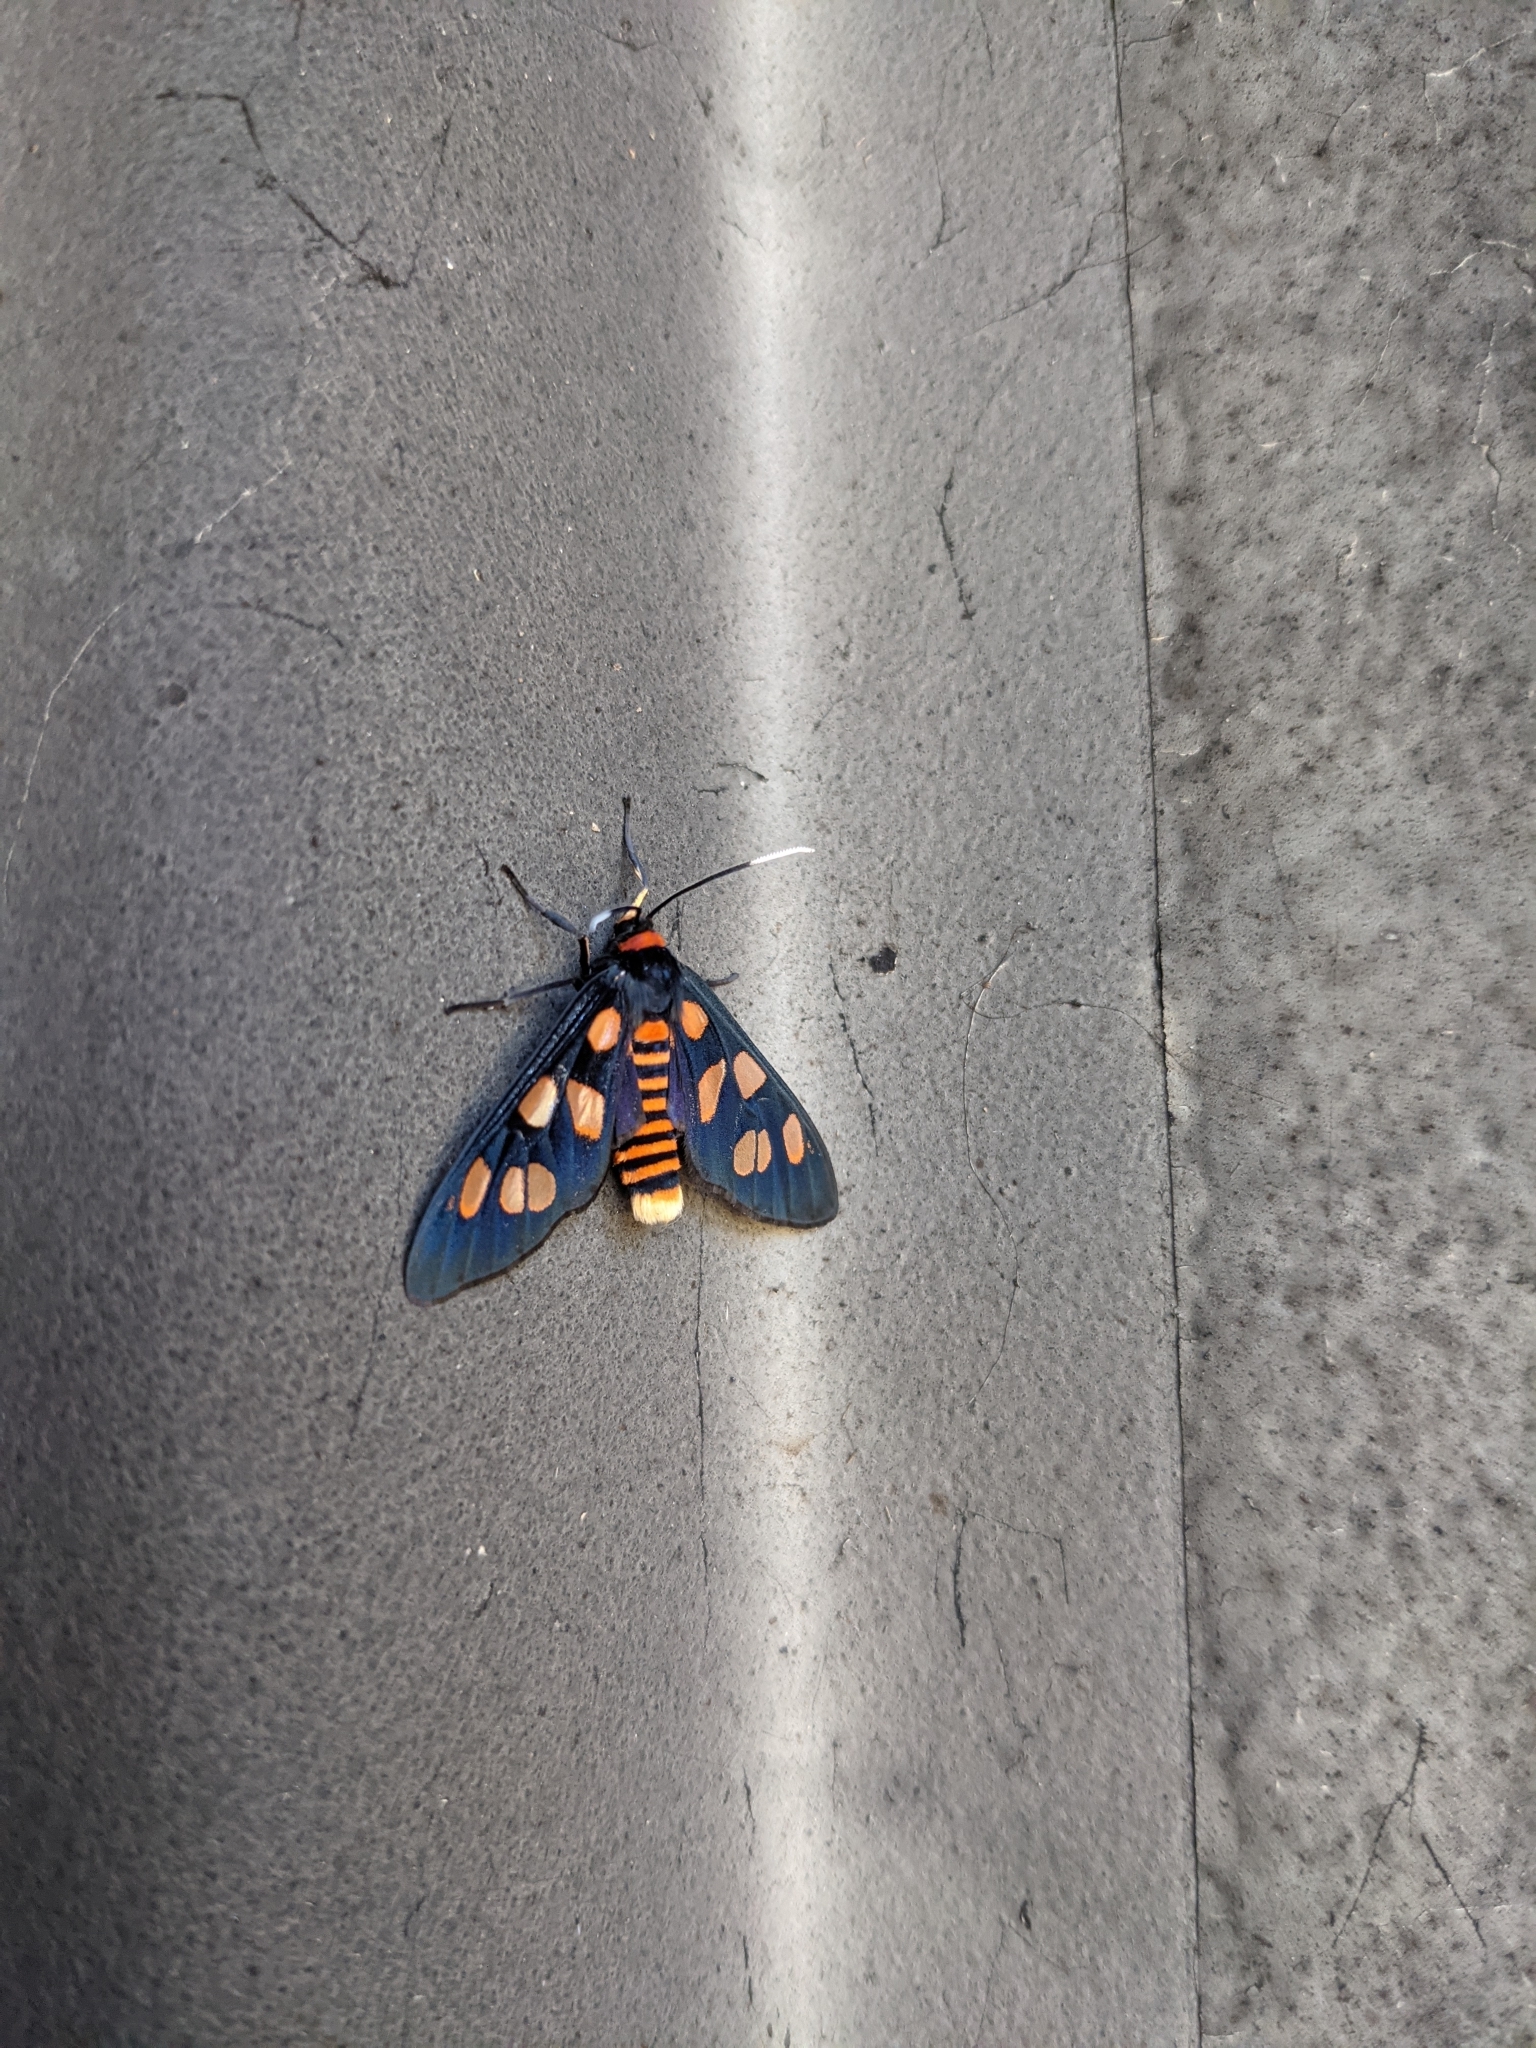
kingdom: Animalia
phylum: Arthropoda
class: Insecta
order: Lepidoptera
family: Erebidae
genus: Amata
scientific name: Amata nigriceps
